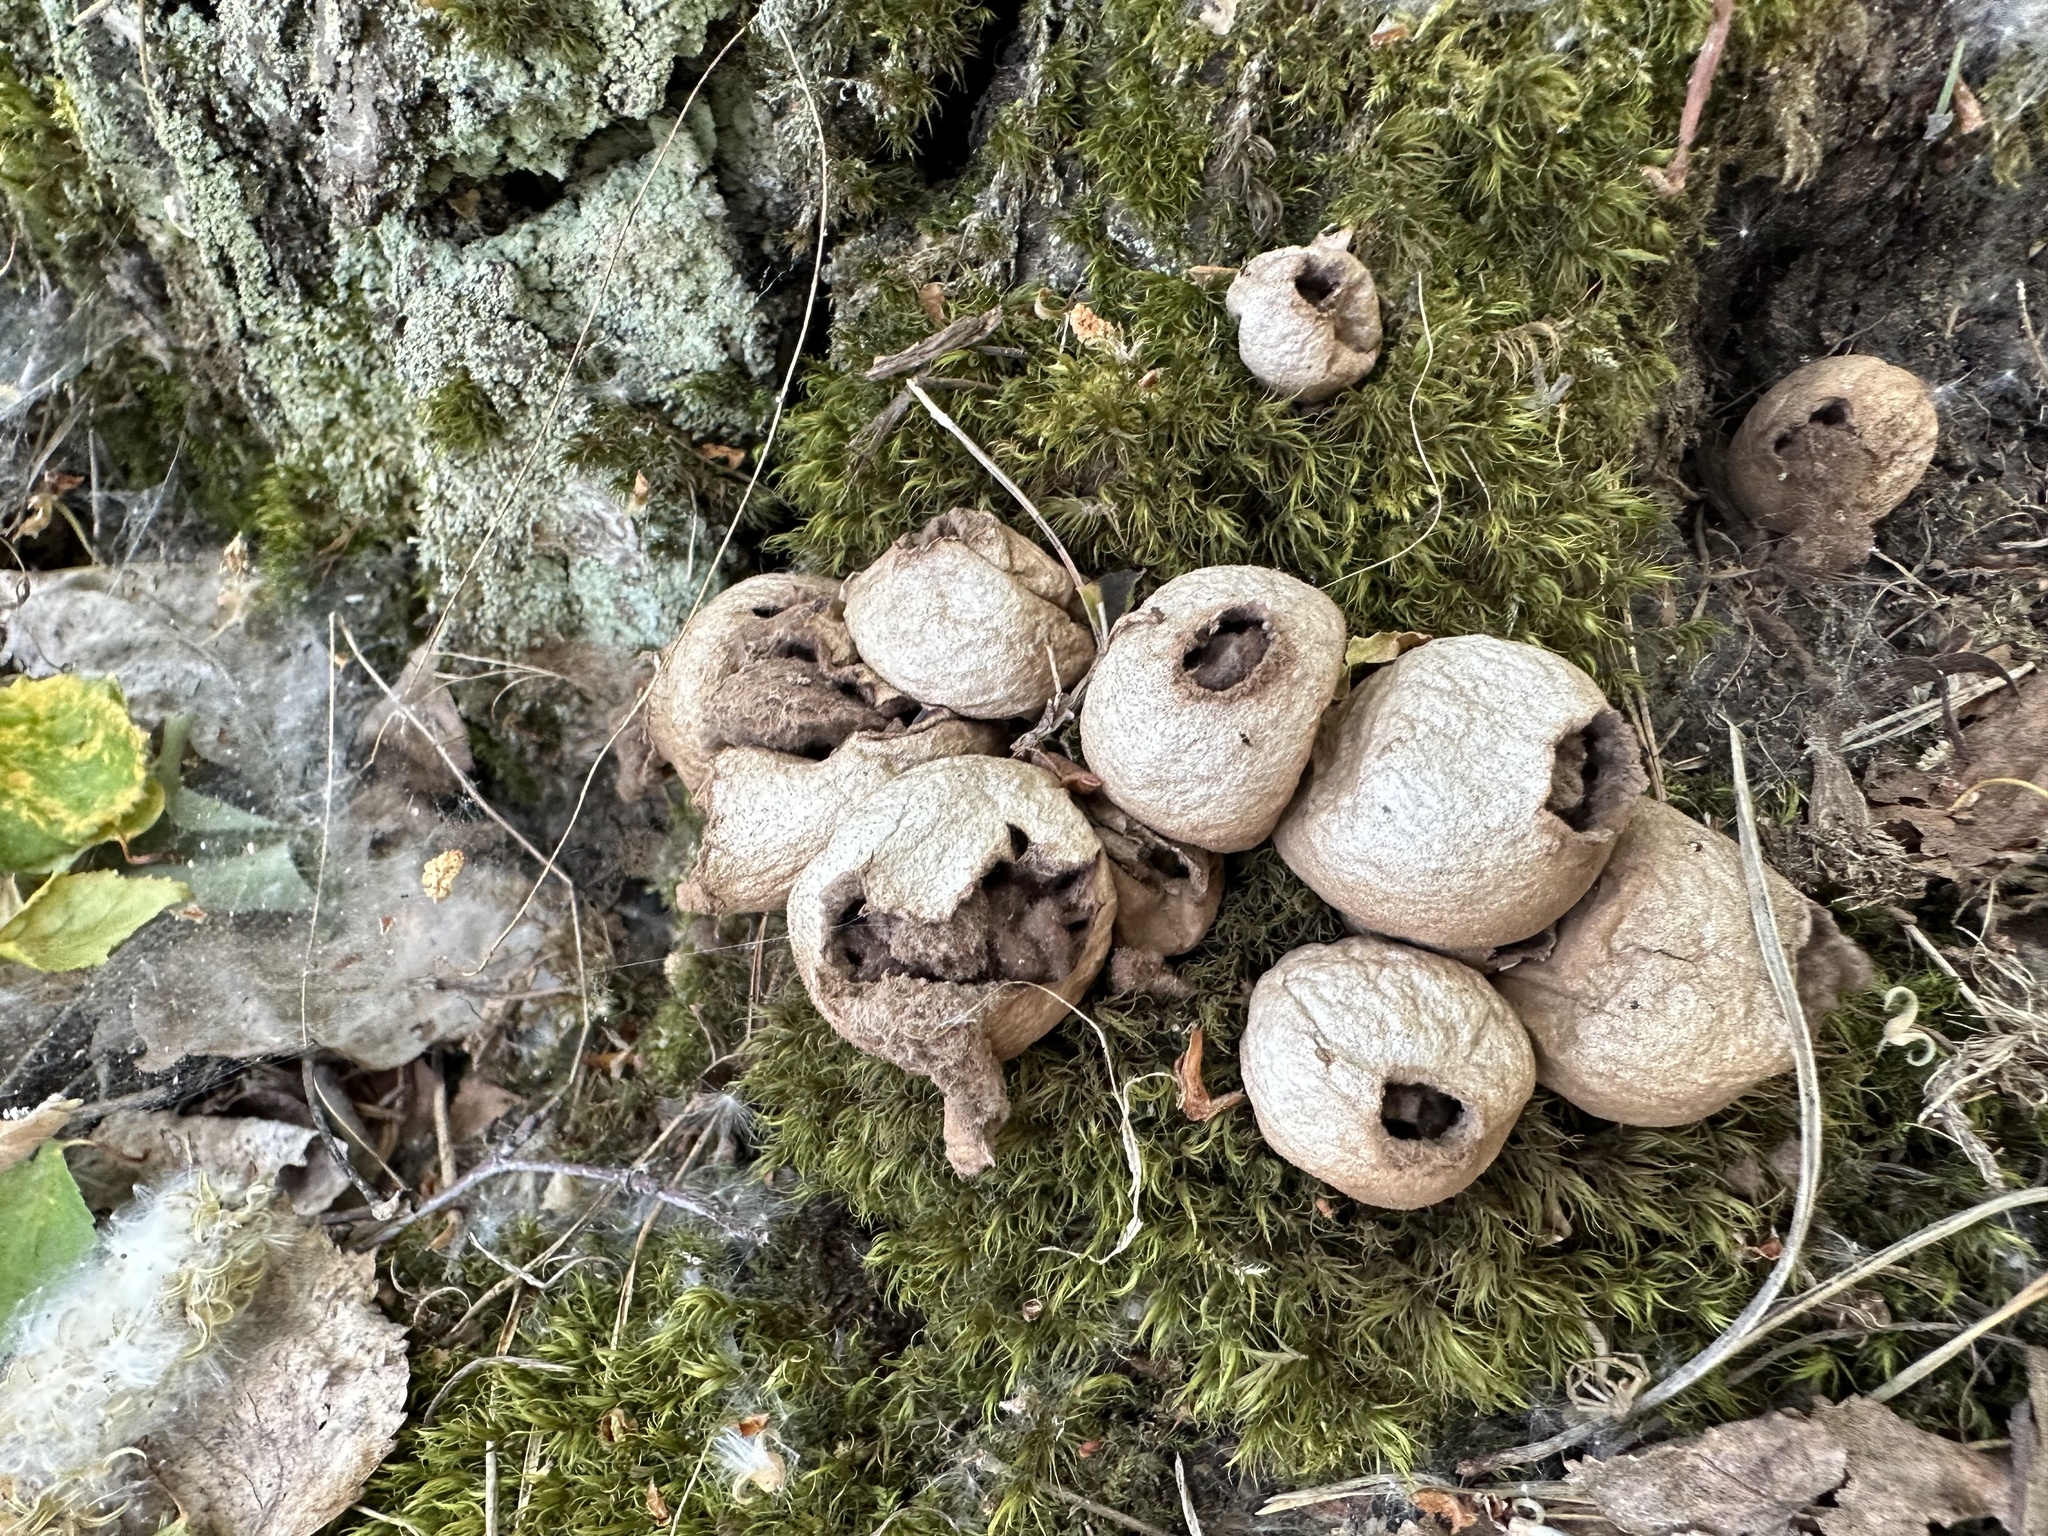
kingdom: Fungi
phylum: Basidiomycota
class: Agaricomycetes
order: Agaricales
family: Lycoperdaceae
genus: Apioperdon
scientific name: Apioperdon pyriforme
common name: Pear-shaped puffball
